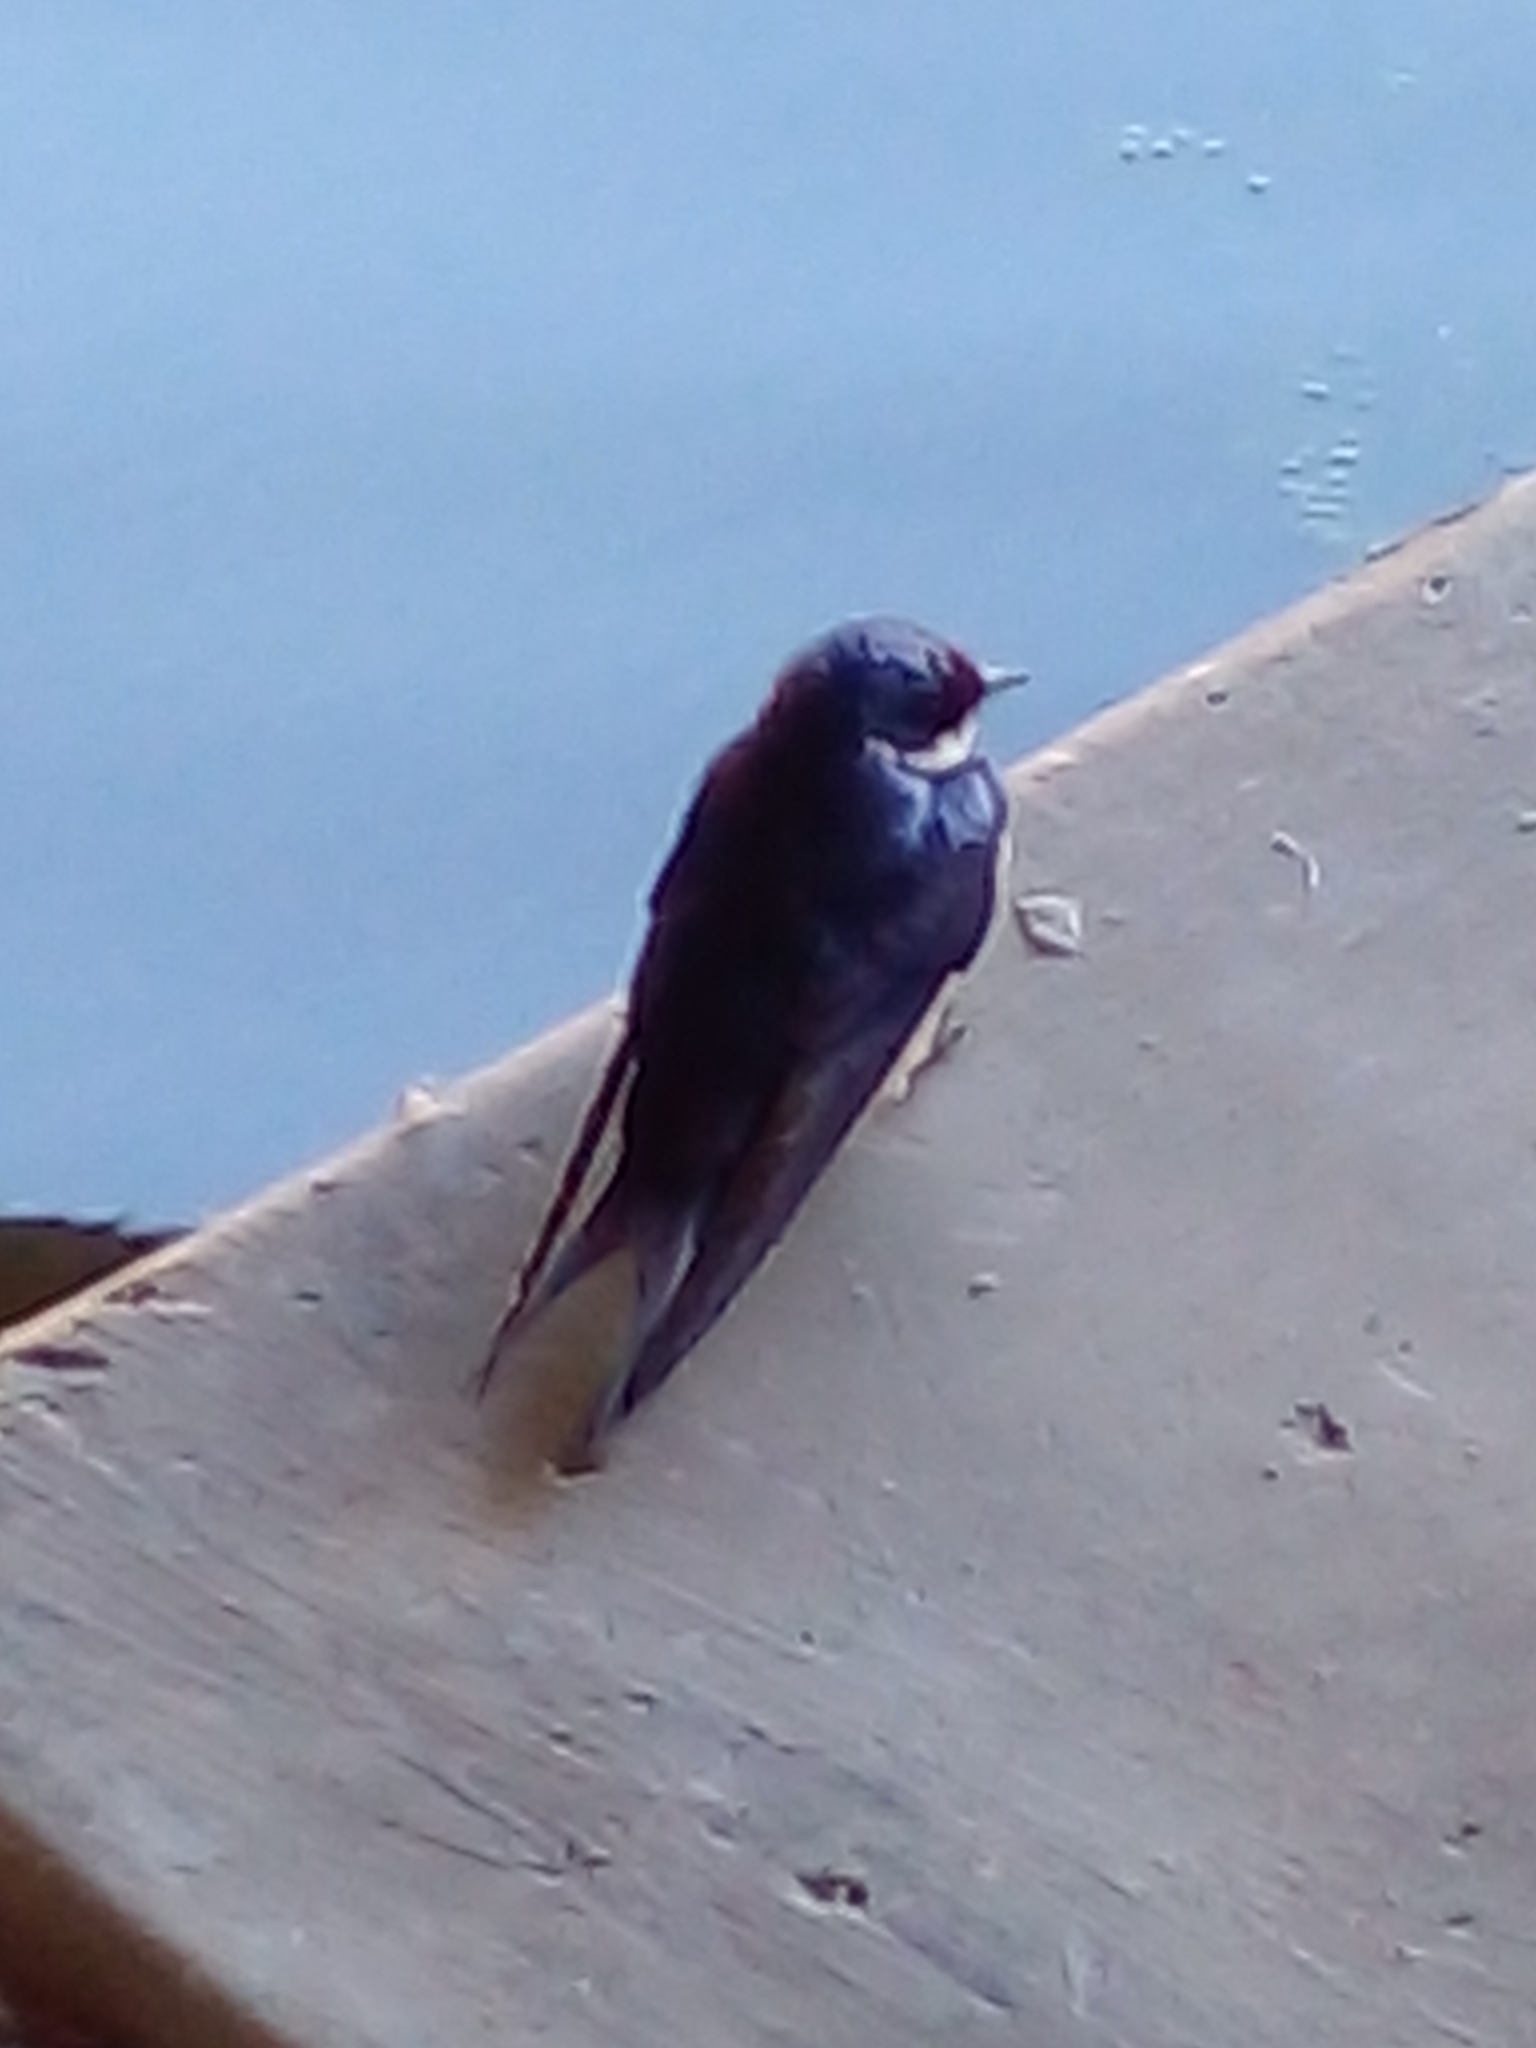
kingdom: Animalia
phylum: Chordata
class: Aves
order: Passeriformes
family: Hirundinidae
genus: Hirundo
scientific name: Hirundo albigularis
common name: White-throated swallow
